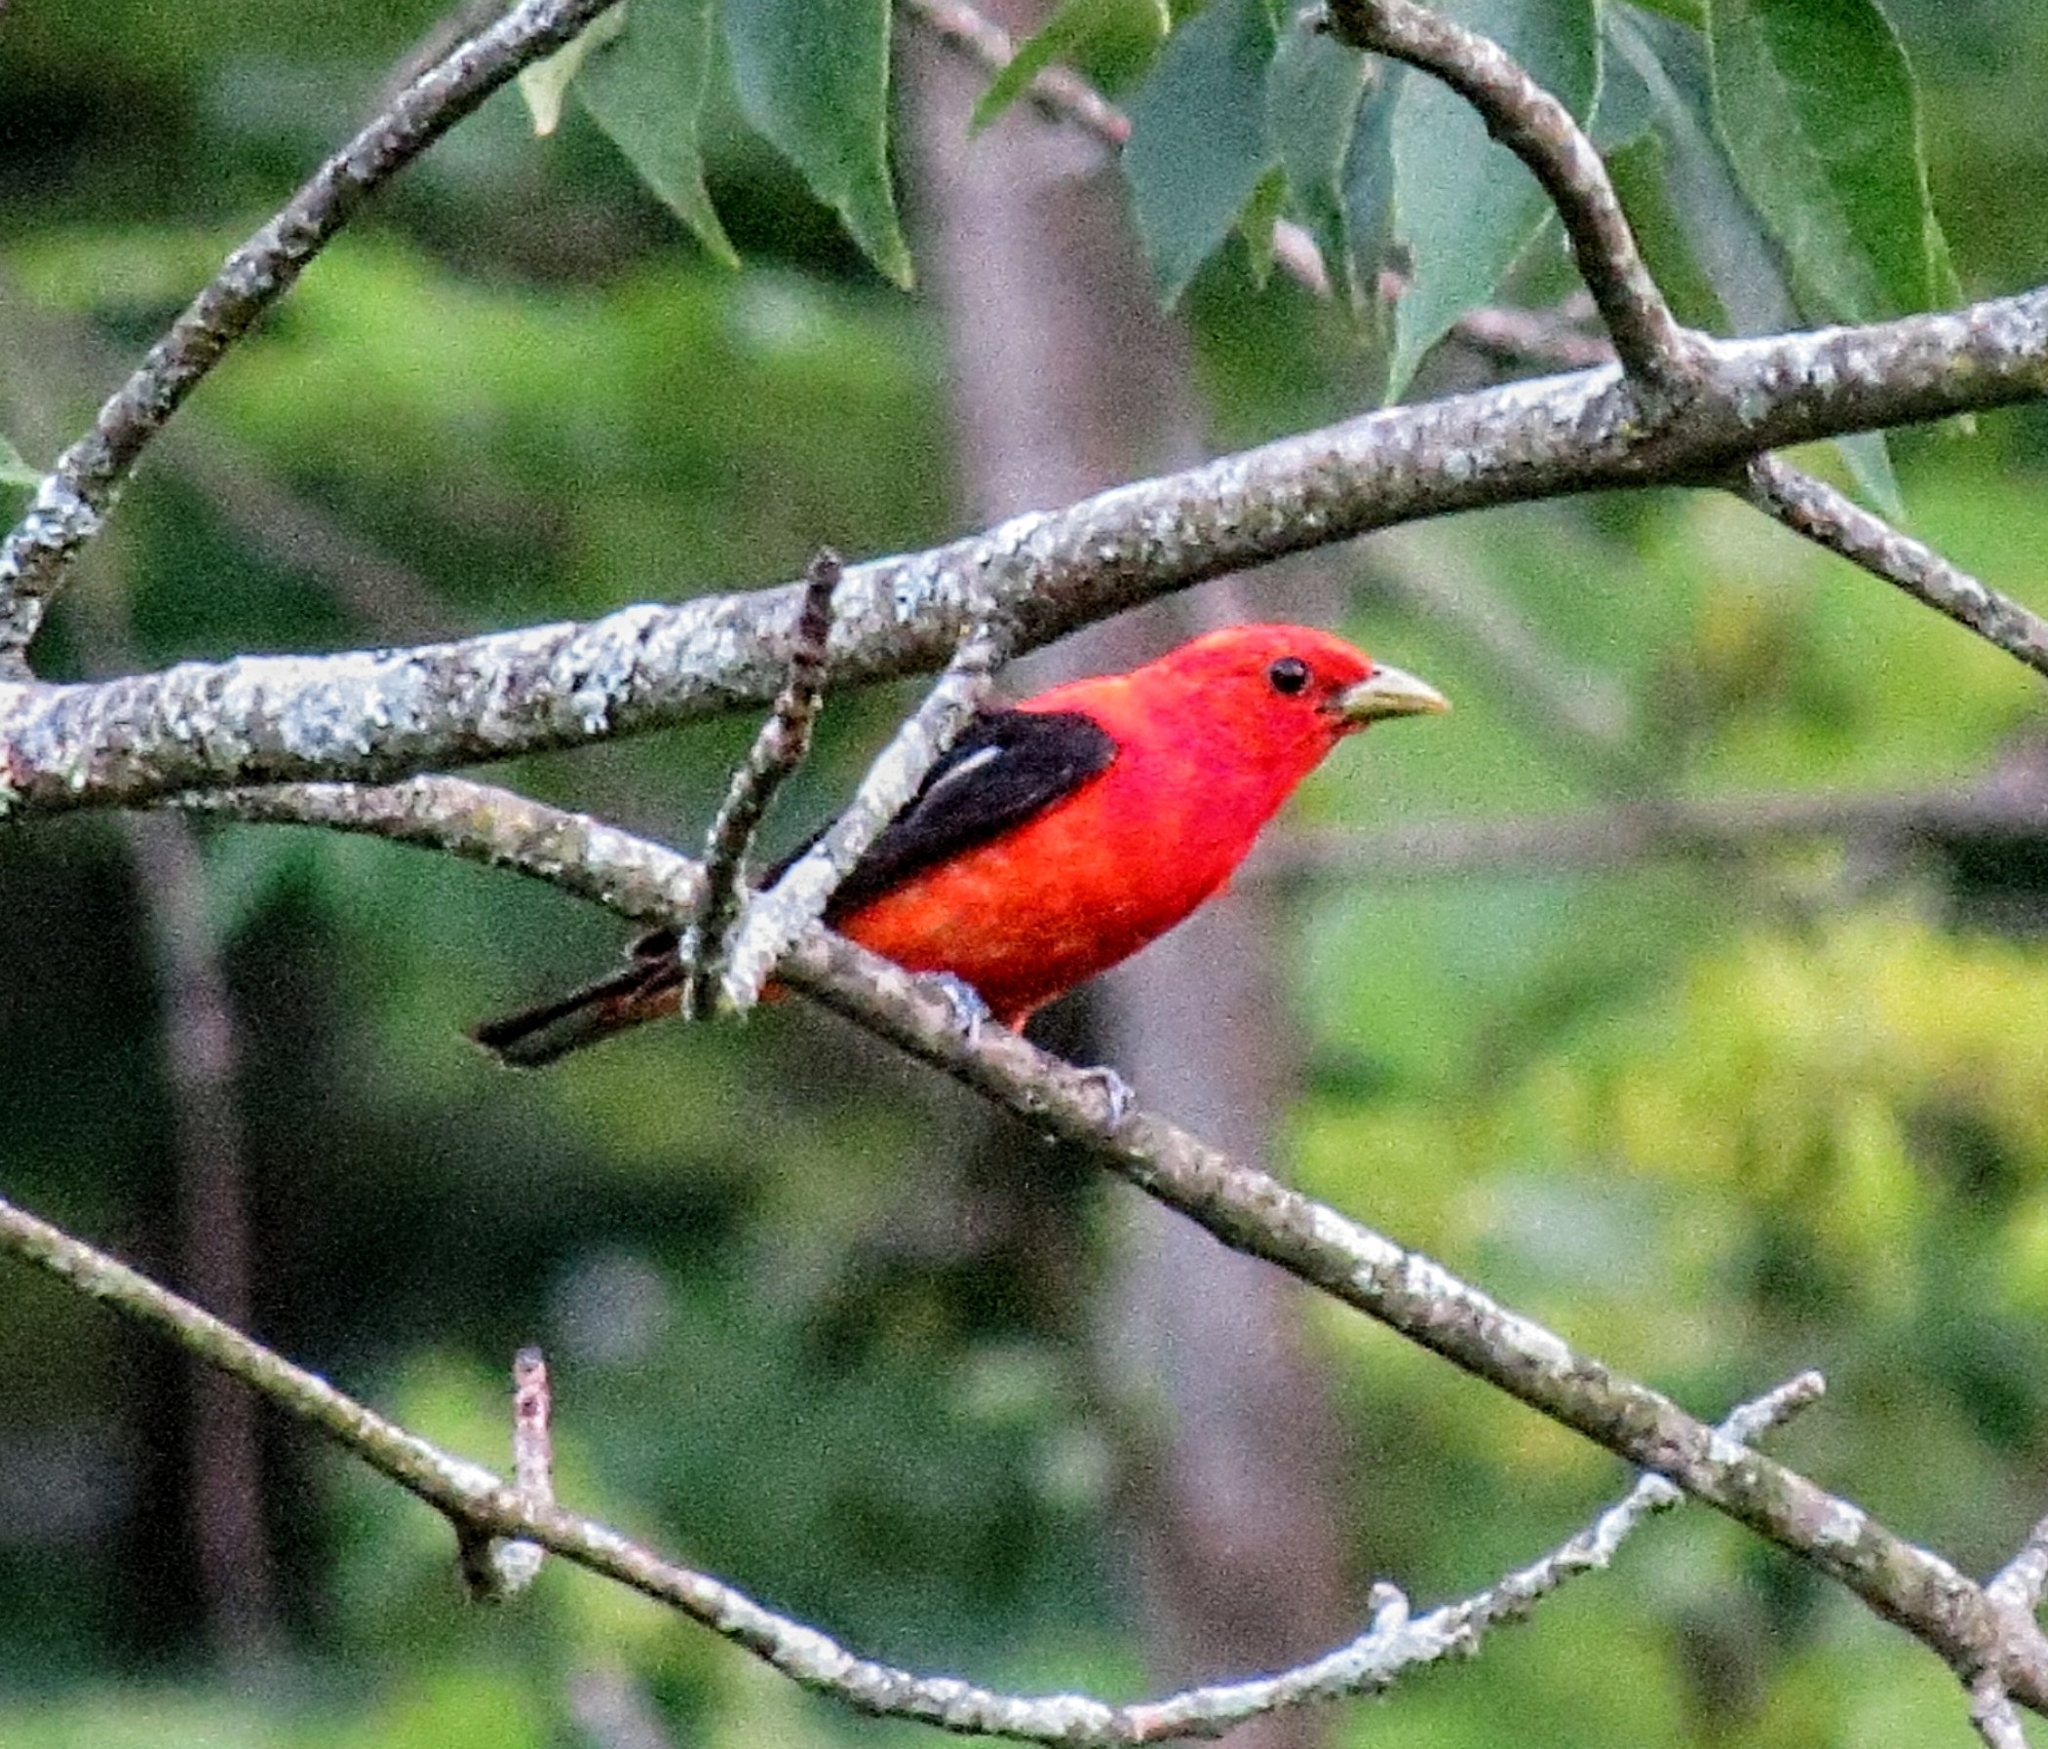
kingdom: Animalia
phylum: Chordata
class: Aves
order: Passeriformes
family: Cardinalidae
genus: Piranga
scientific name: Piranga olivacea
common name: Scarlet tanager
